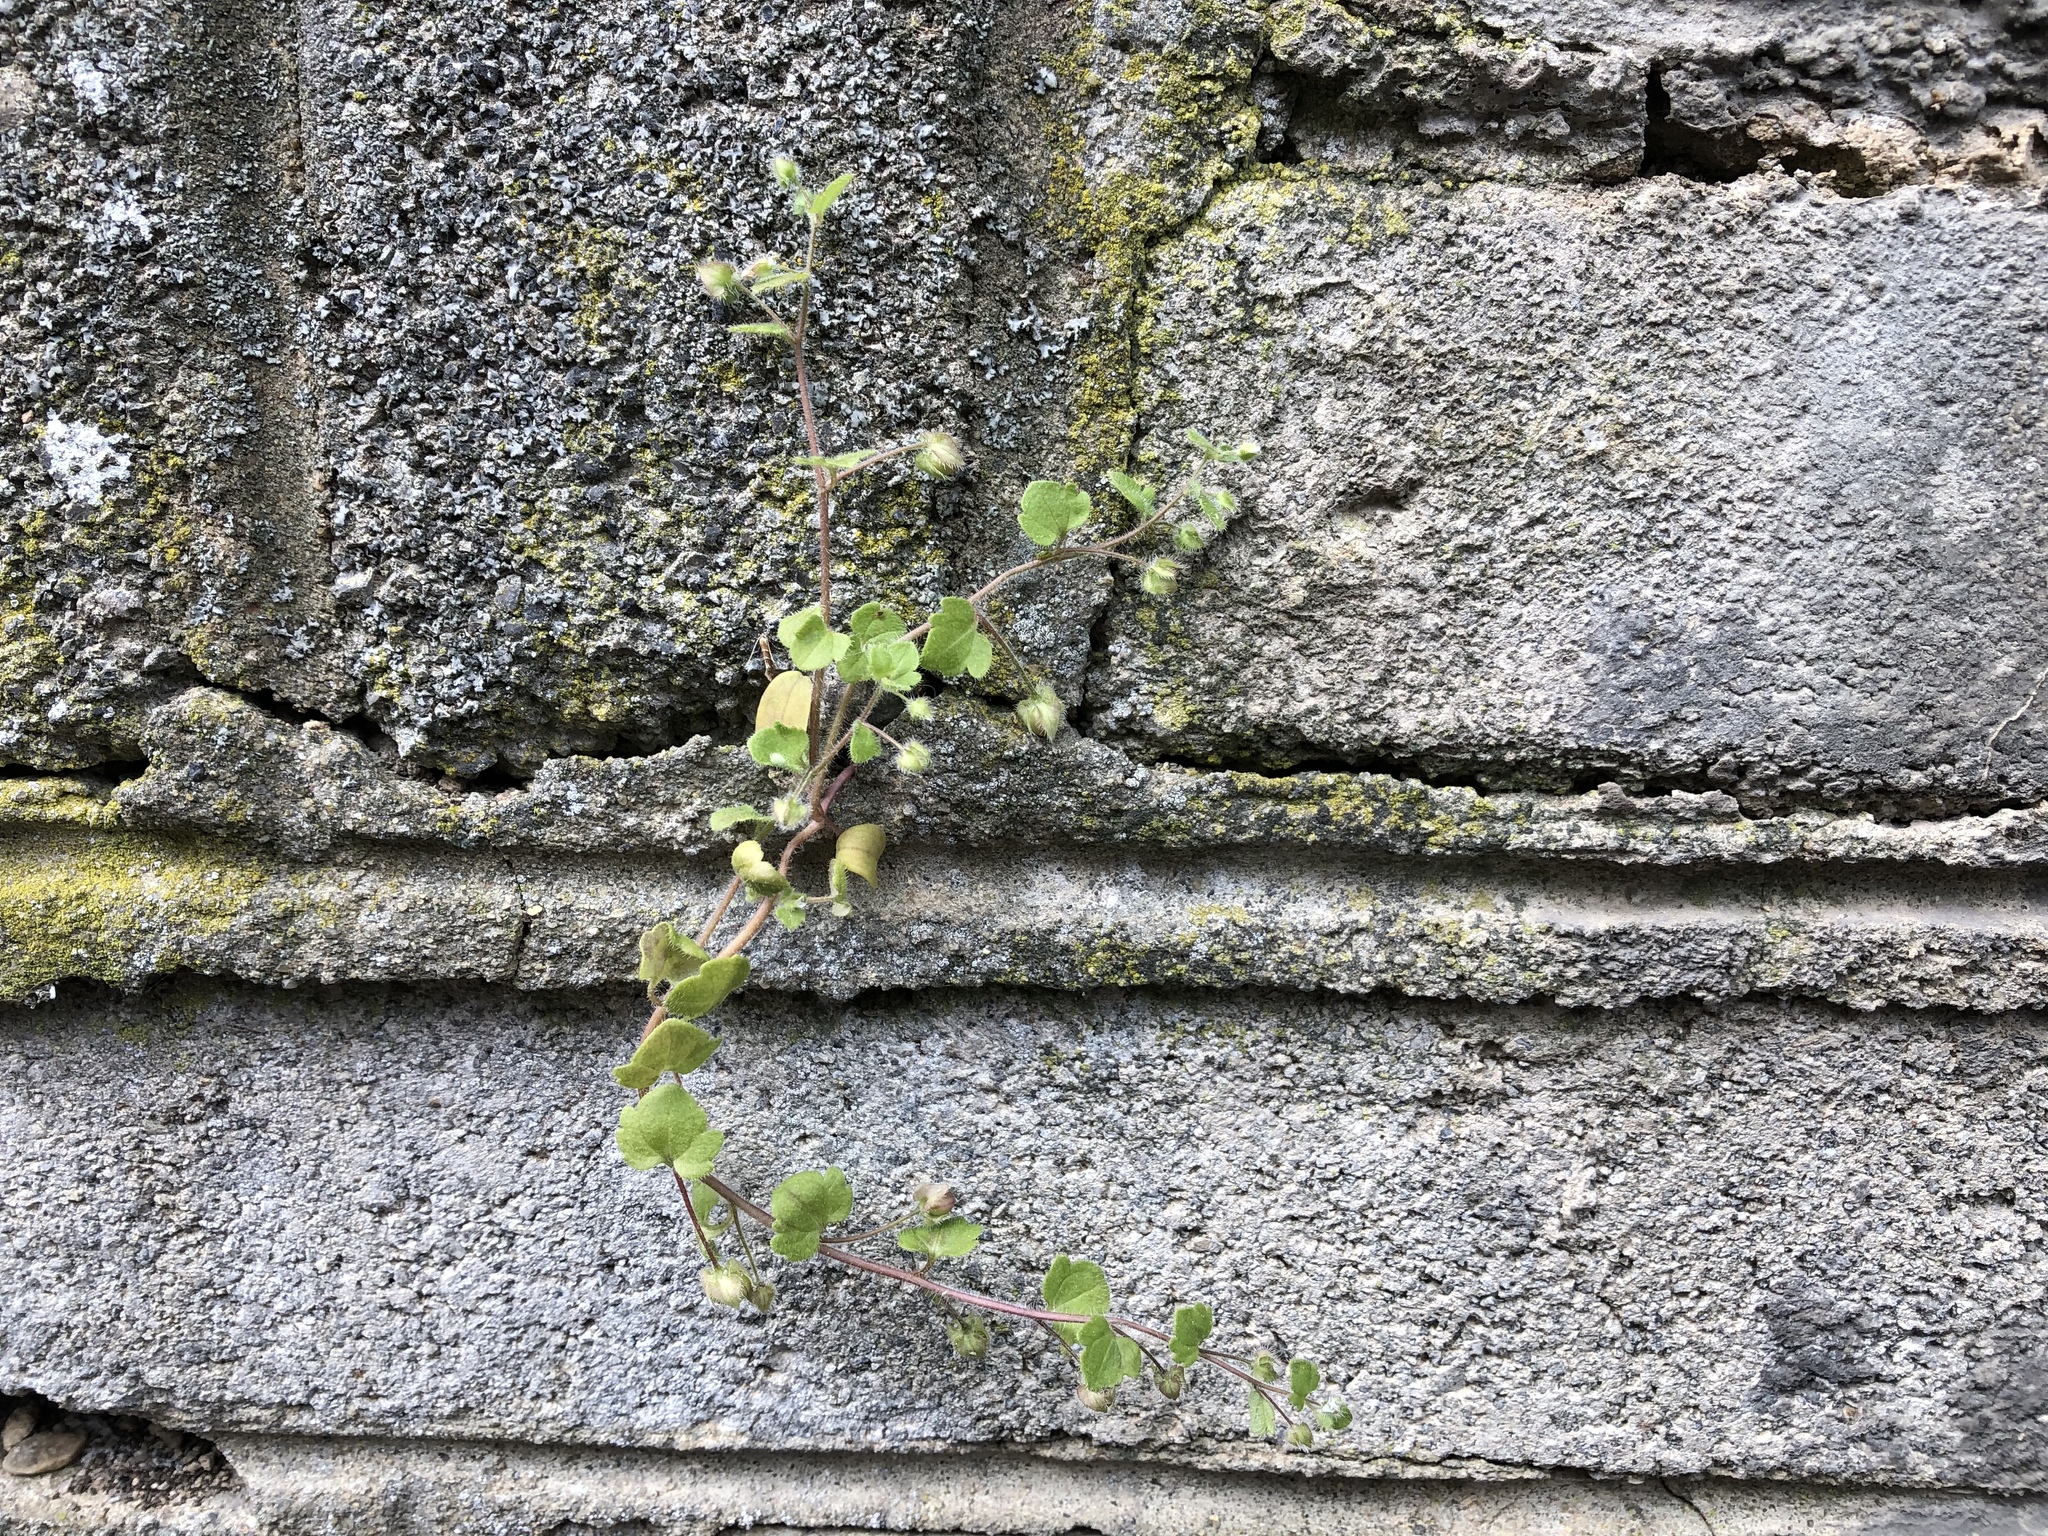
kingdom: Plantae
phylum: Tracheophyta
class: Magnoliopsida
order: Lamiales
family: Plantaginaceae
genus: Veronica
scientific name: Veronica sublobata
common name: False ivy-leaved speedwell
